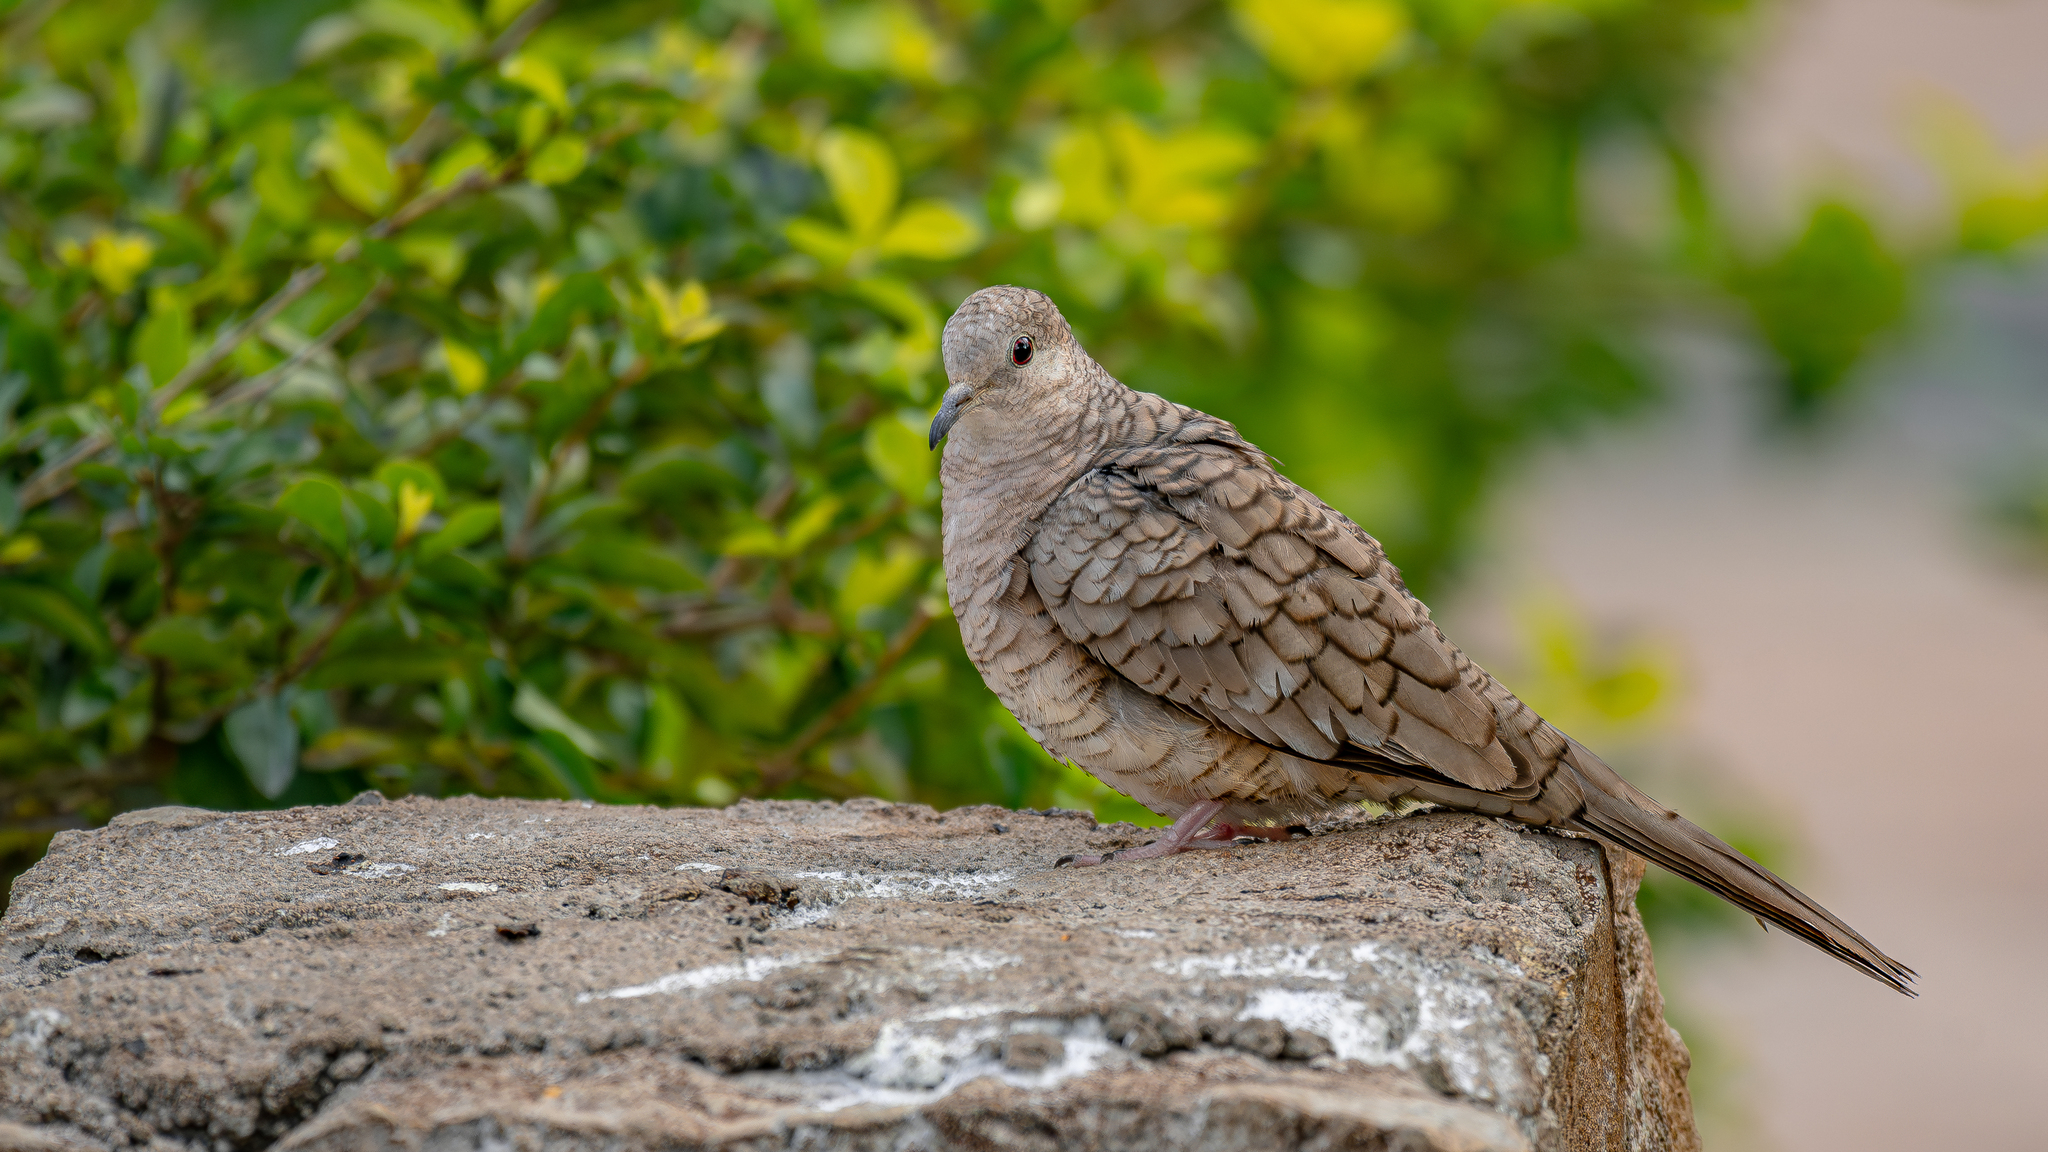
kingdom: Animalia
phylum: Chordata
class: Aves
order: Columbiformes
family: Columbidae
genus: Columbina
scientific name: Columbina inca
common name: Inca dove
